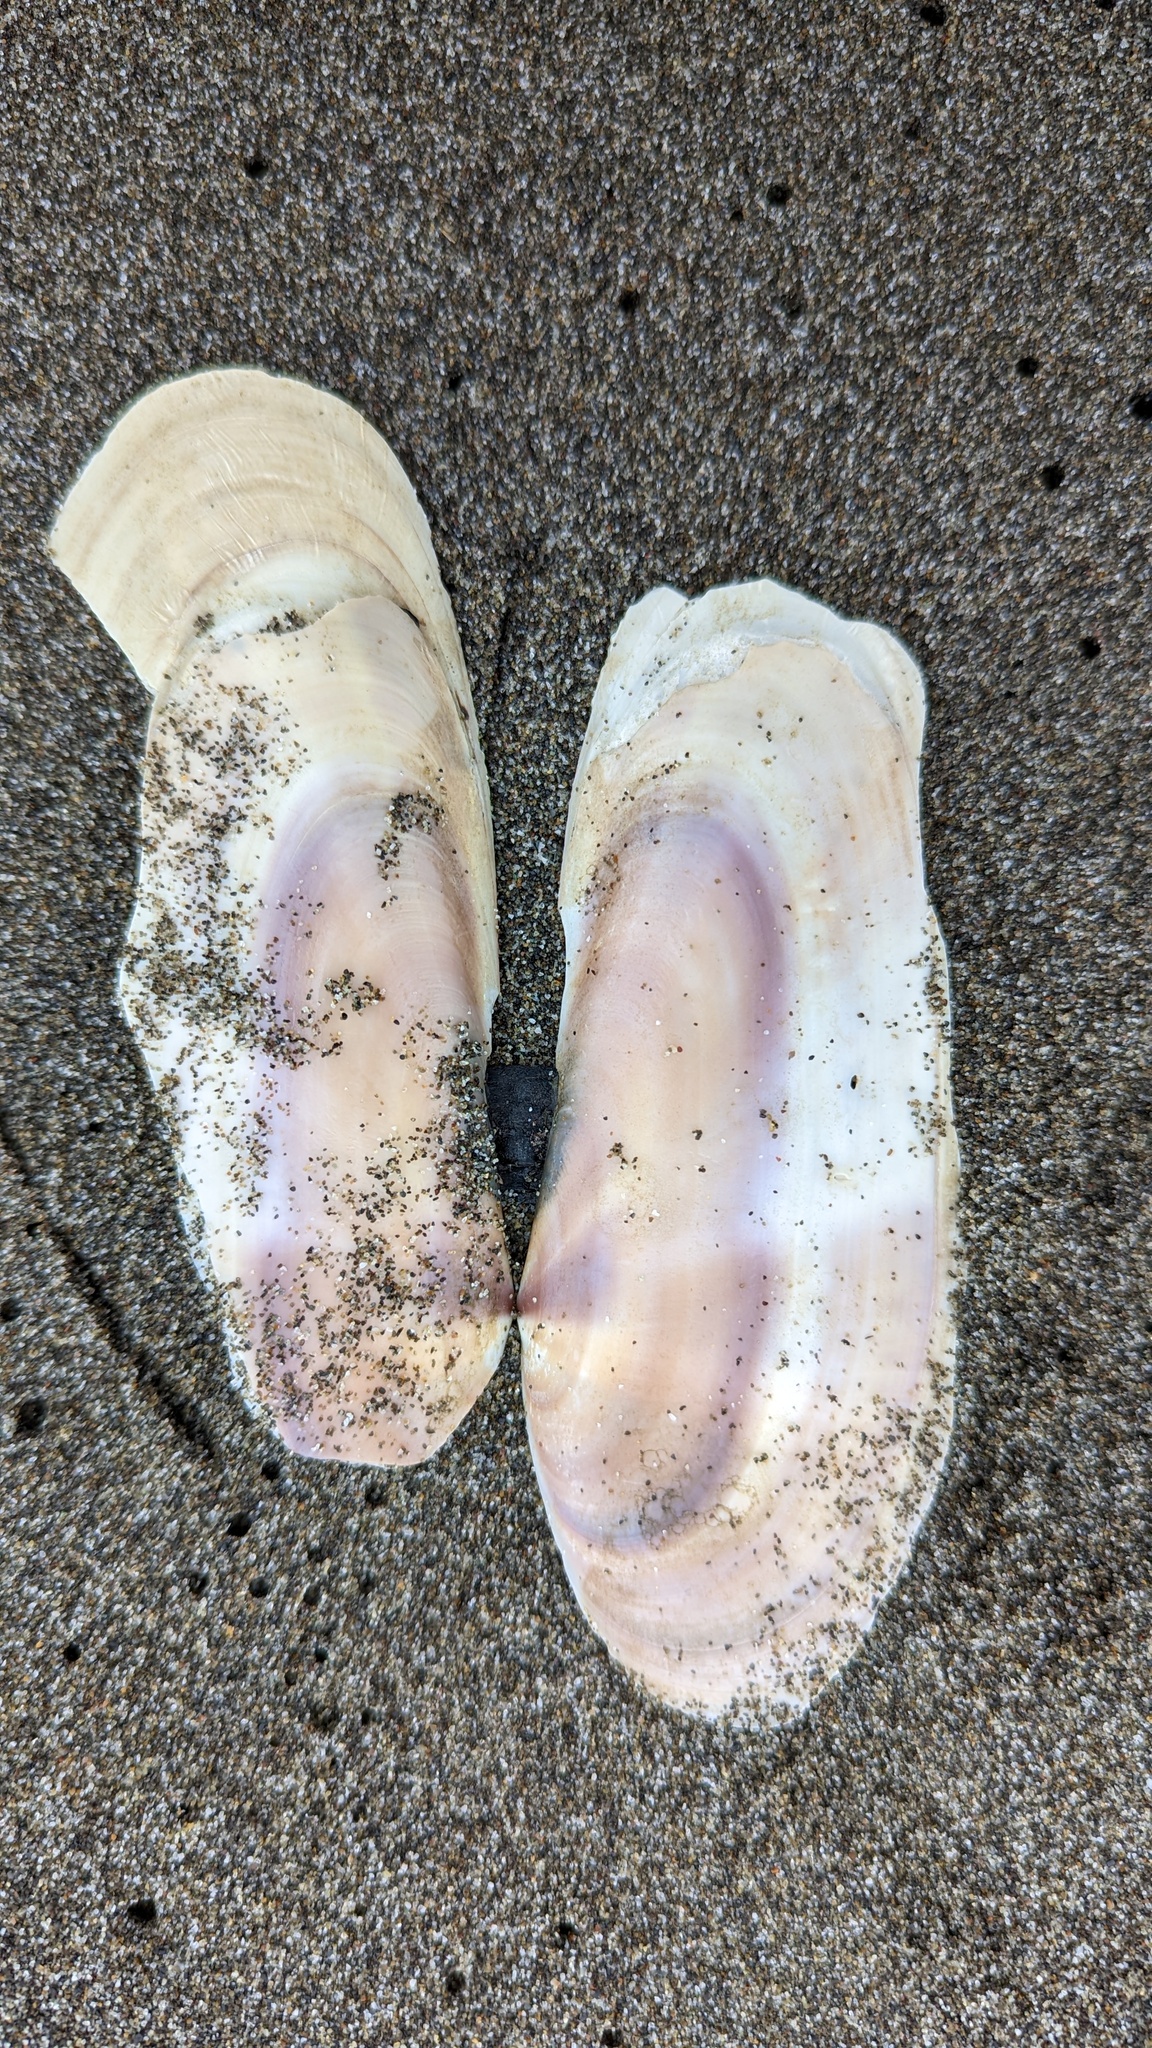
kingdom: Animalia
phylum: Mollusca
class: Bivalvia
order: Adapedonta
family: Pharidae
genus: Siliqua
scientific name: Siliqua patula
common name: Pacific razor clam
